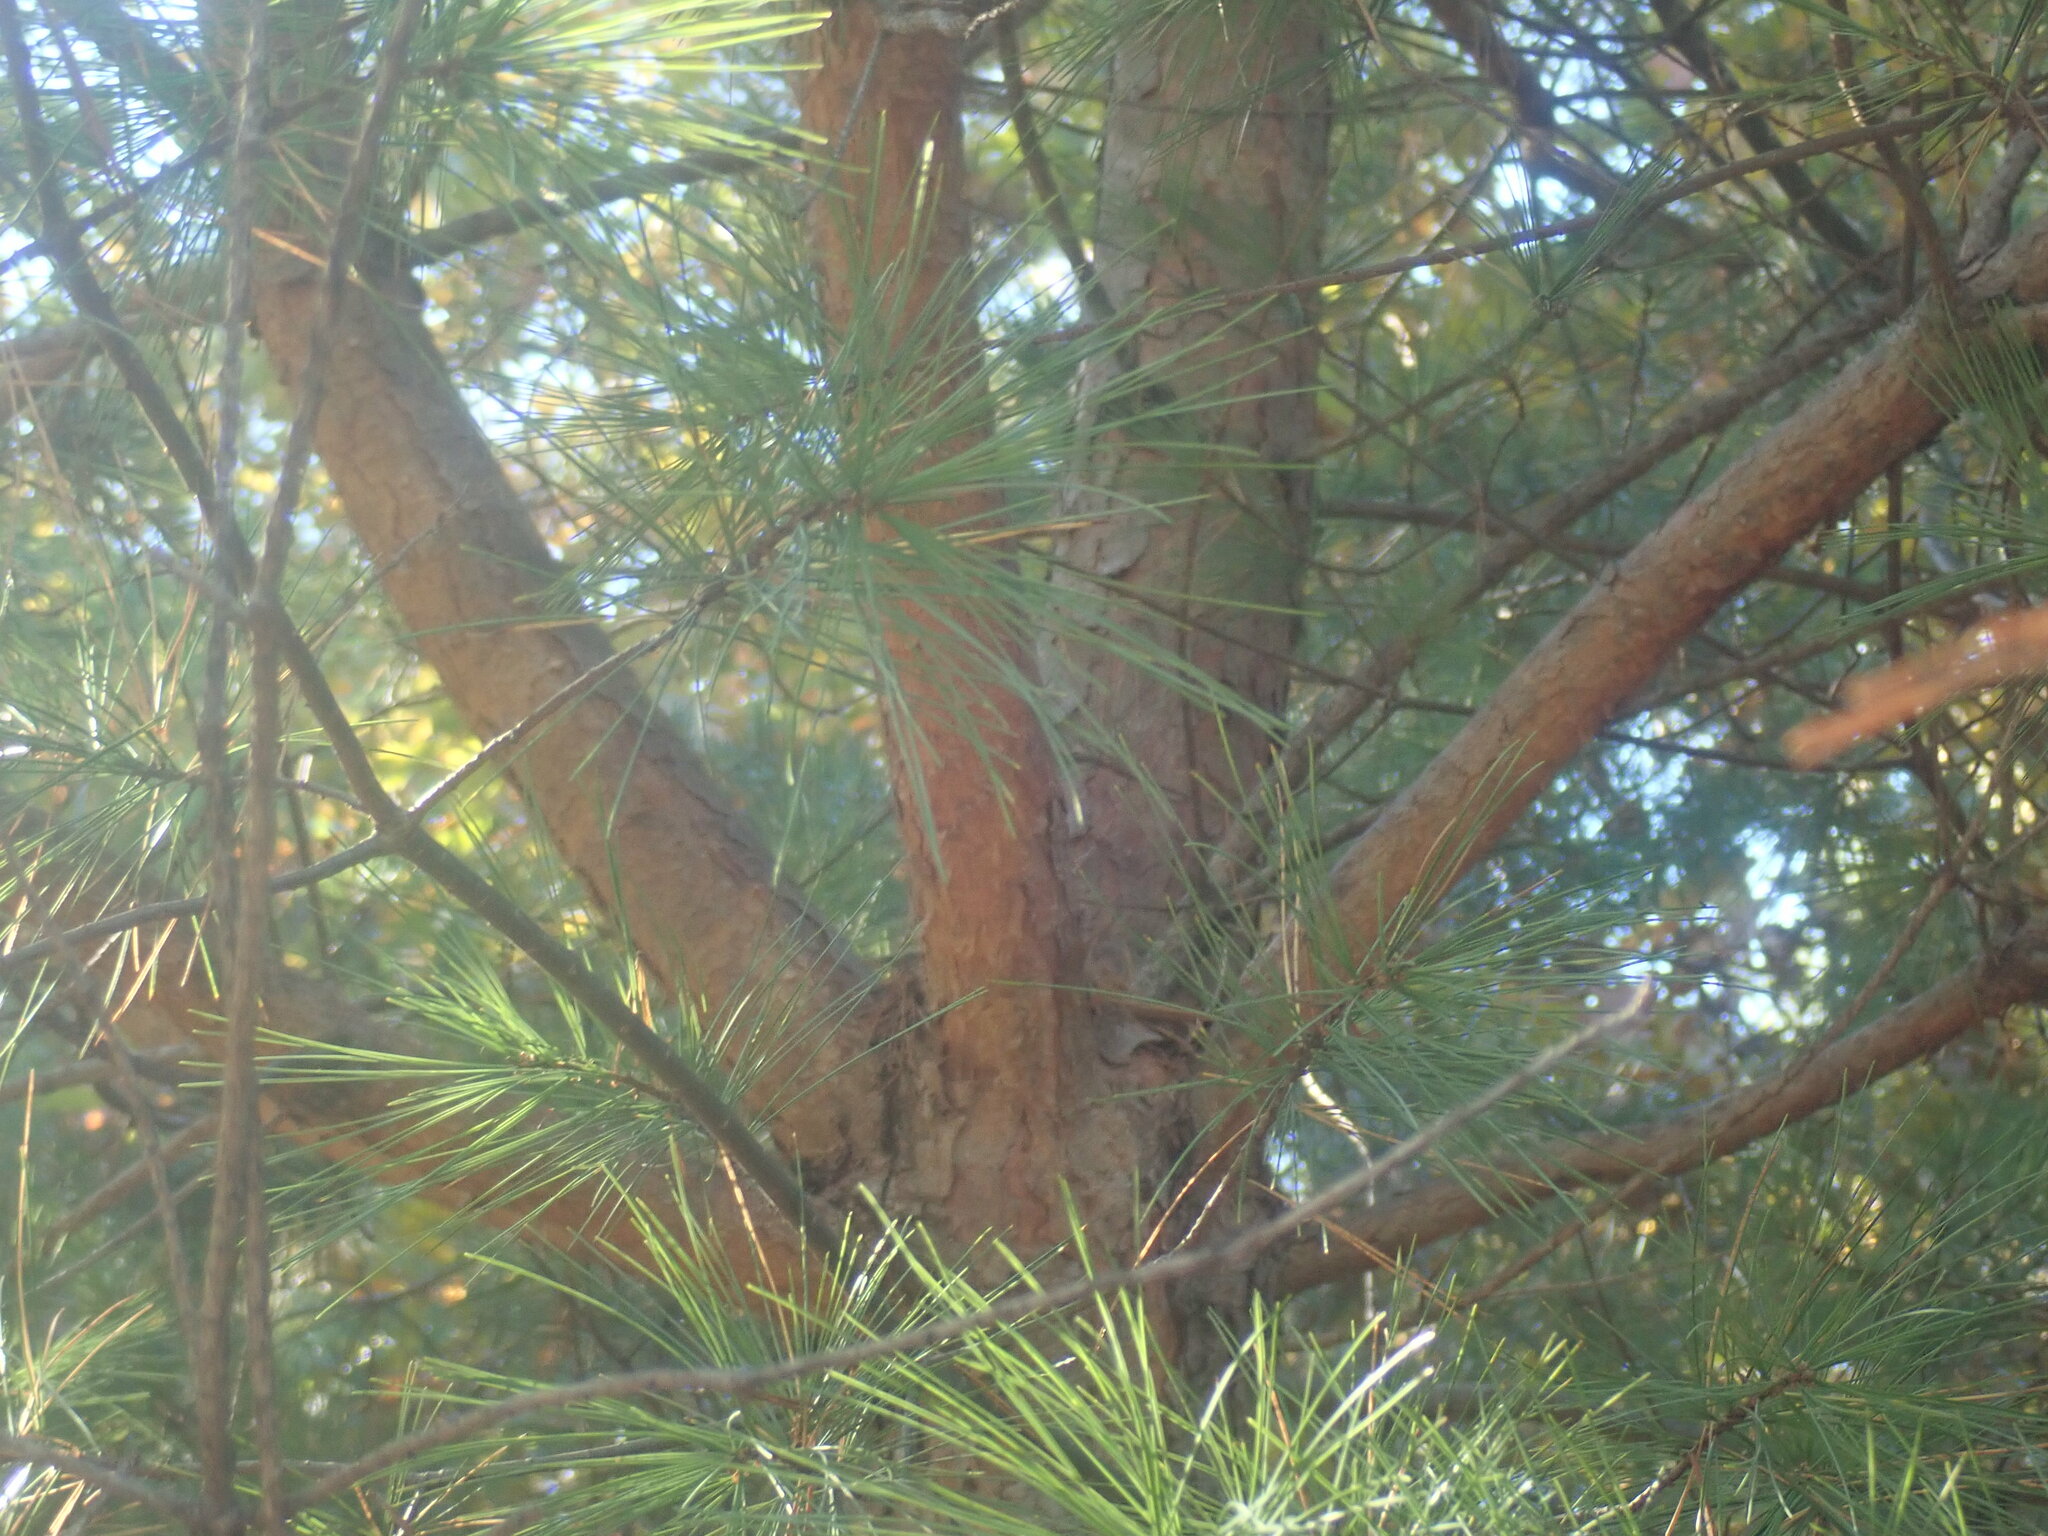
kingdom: Plantae
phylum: Tracheophyta
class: Pinopsida
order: Pinales
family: Pinaceae
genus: Pinus
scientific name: Pinus sylvestris
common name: Scots pine
